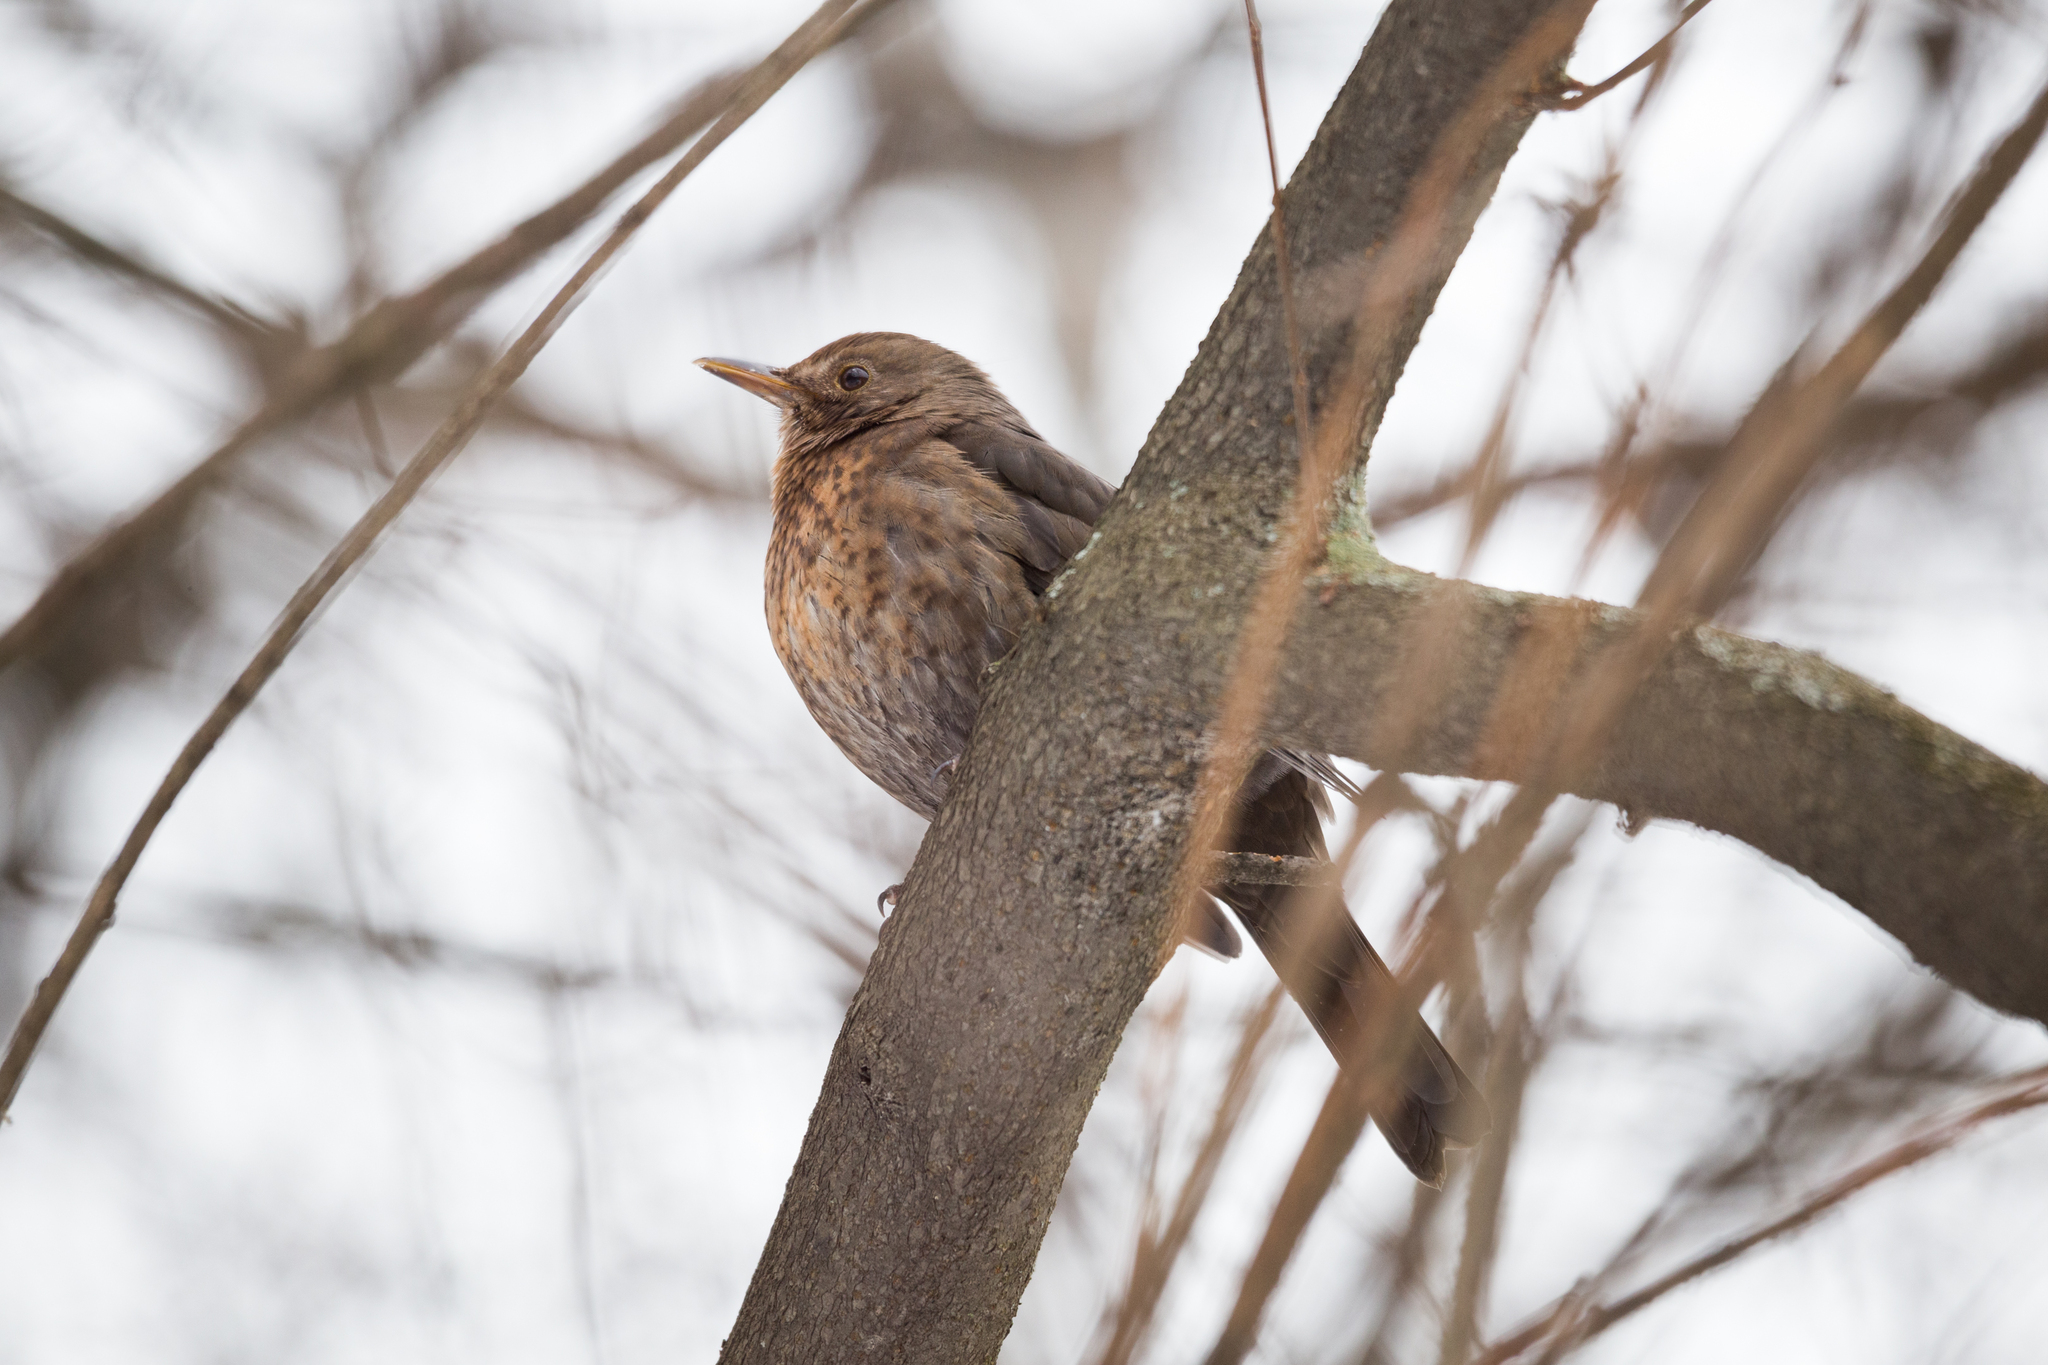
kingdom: Animalia
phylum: Chordata
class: Aves
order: Passeriformes
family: Turdidae
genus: Turdus
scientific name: Turdus merula
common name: Common blackbird
